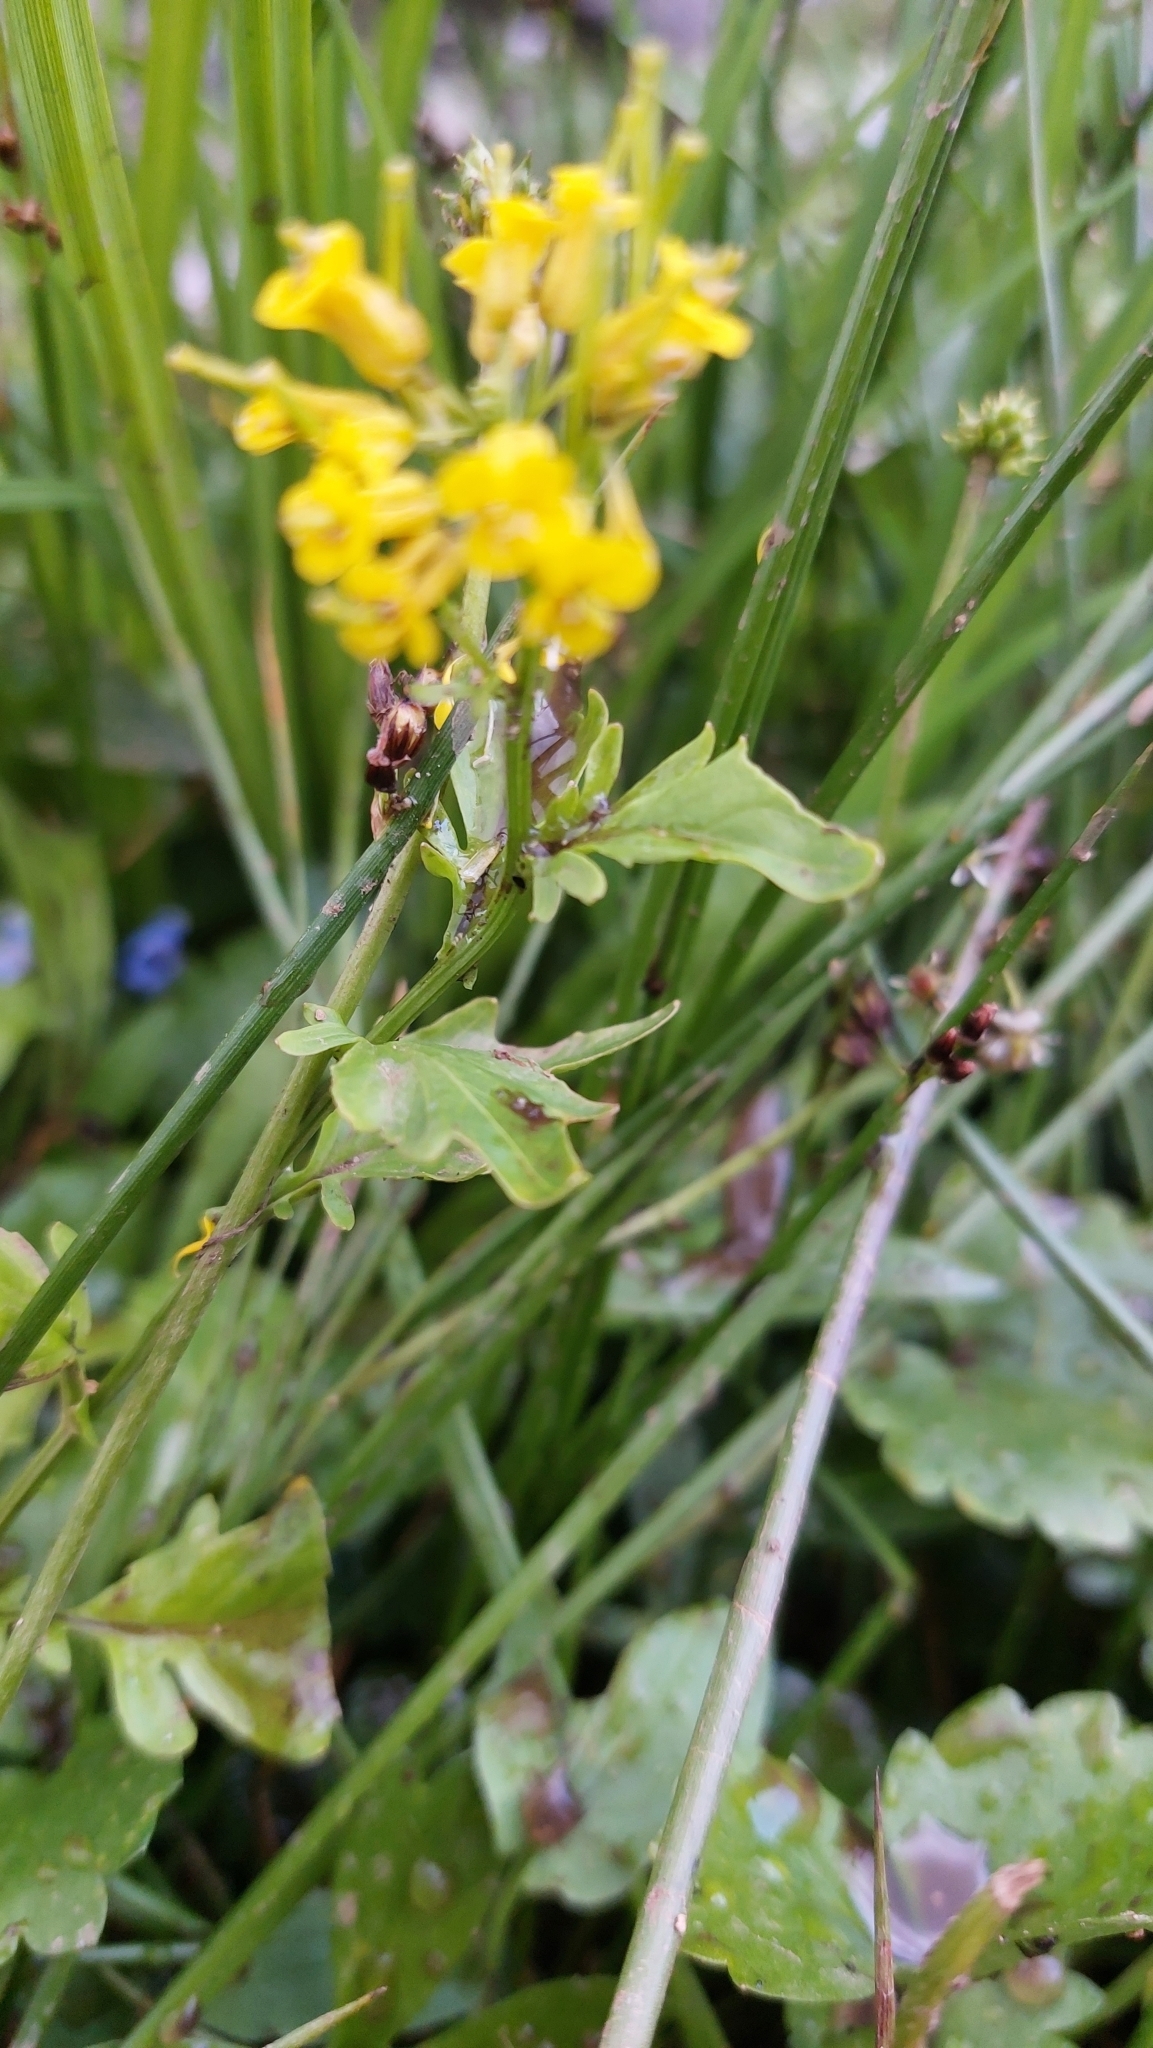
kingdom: Plantae
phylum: Tracheophyta
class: Magnoliopsida
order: Brassicales
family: Brassicaceae
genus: Barbarea
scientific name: Barbarea orthoceras
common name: American wintercress
